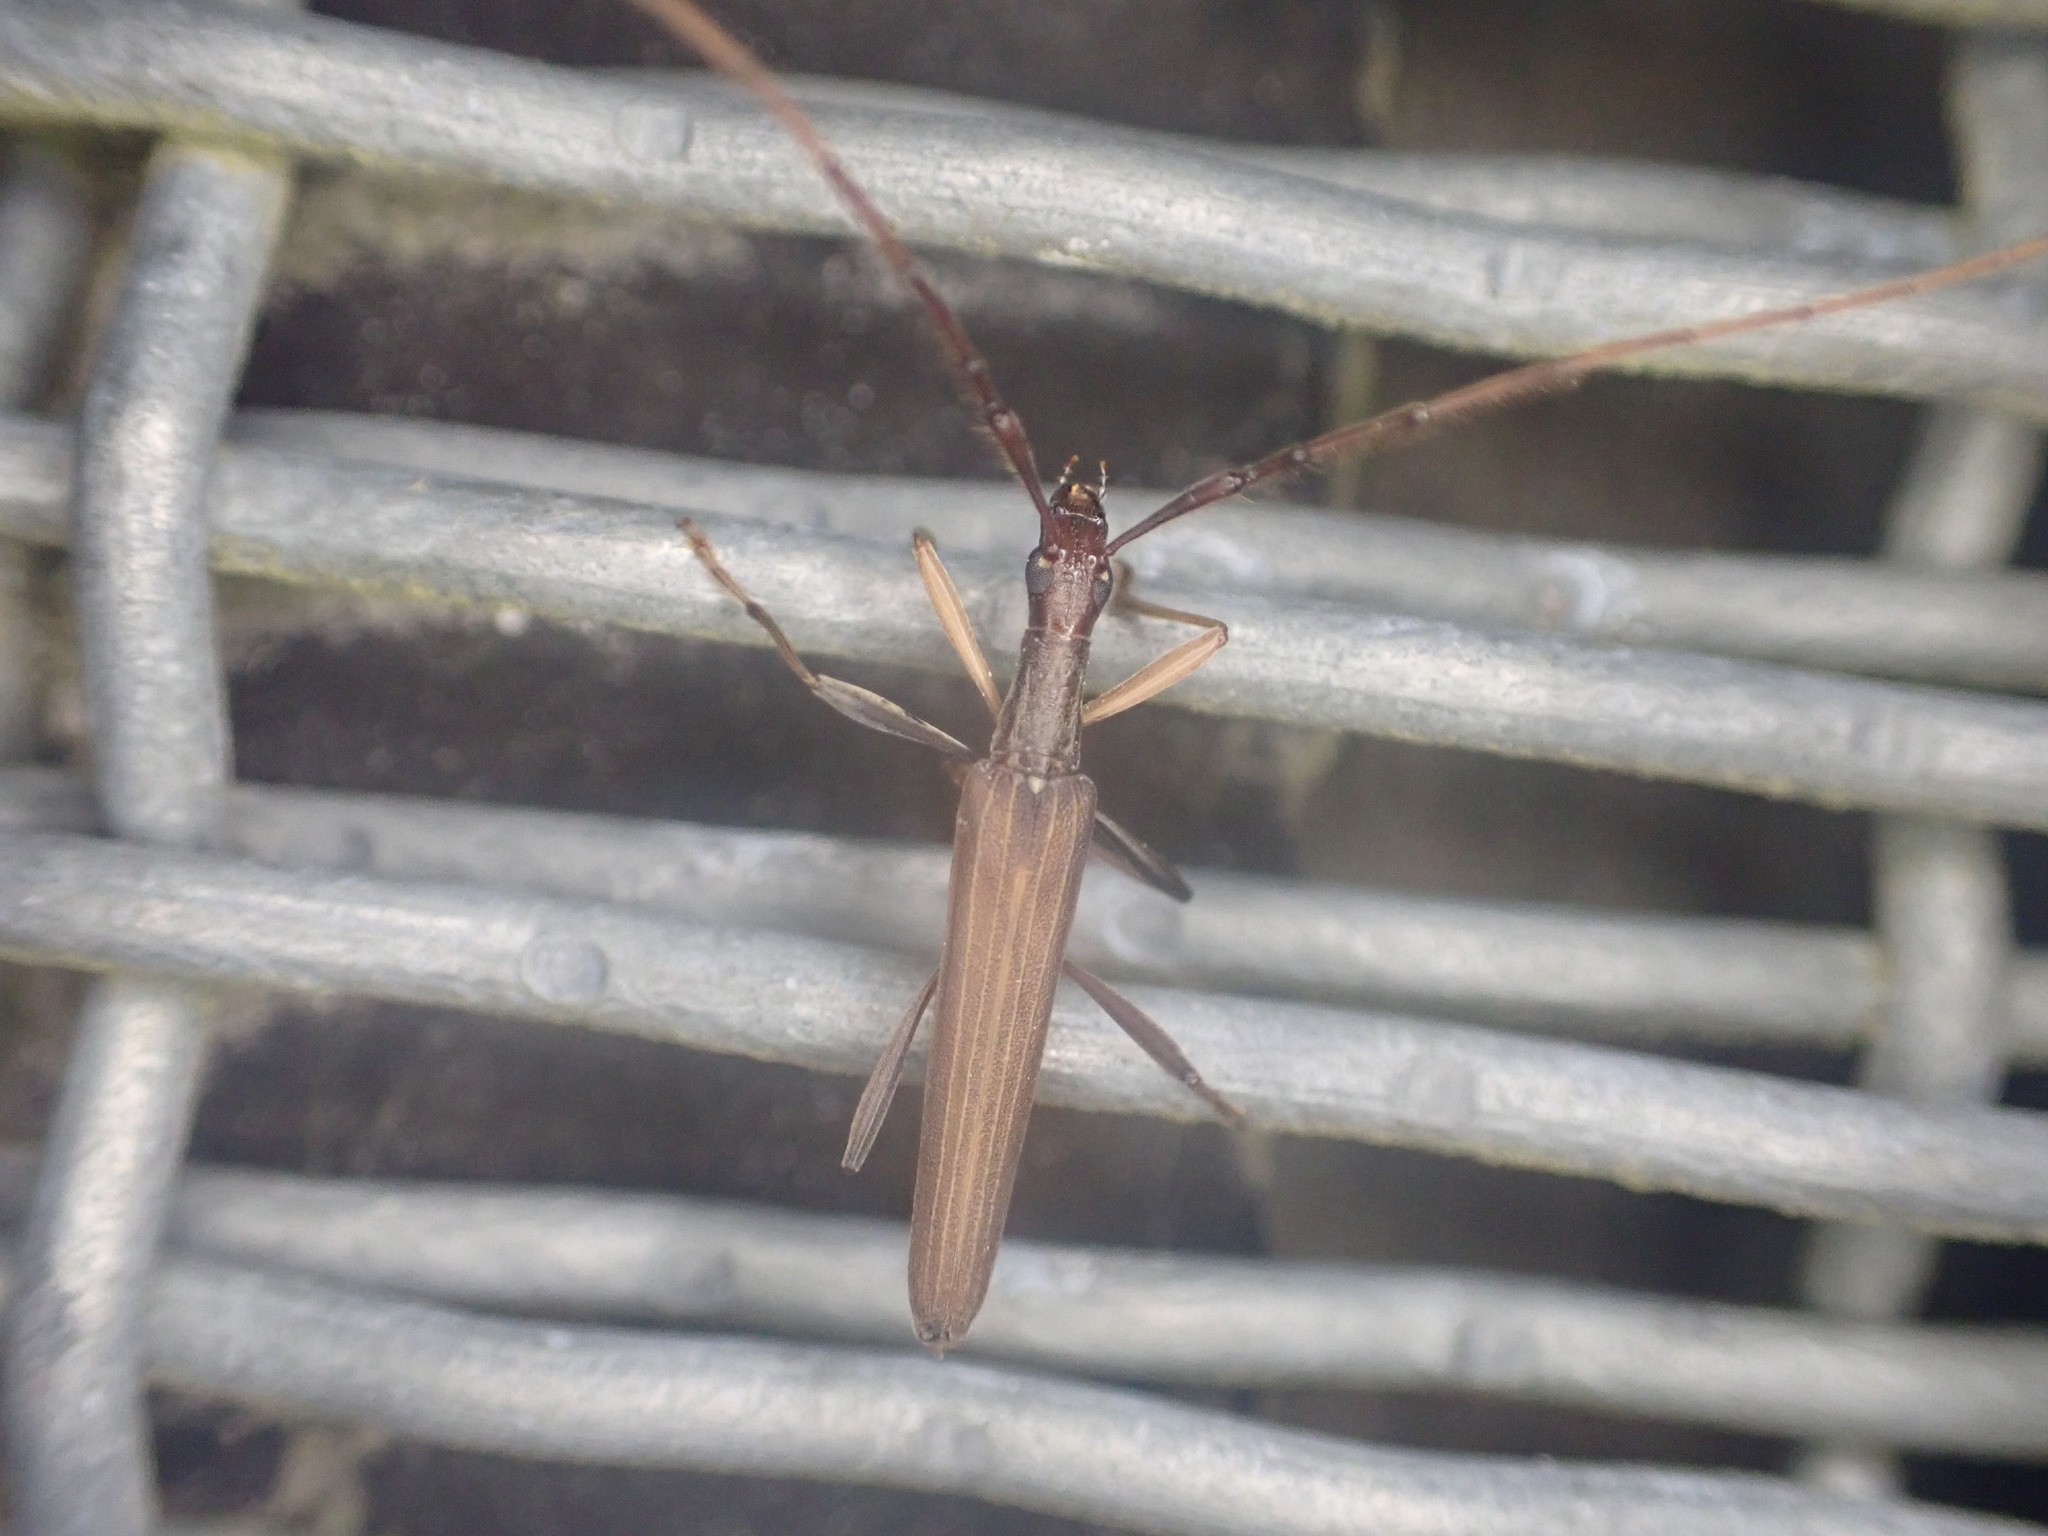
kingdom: Animalia
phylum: Arthropoda
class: Insecta
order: Coleoptera
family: Cerambycidae
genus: Stenopotes
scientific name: Stenopotes pallidus
